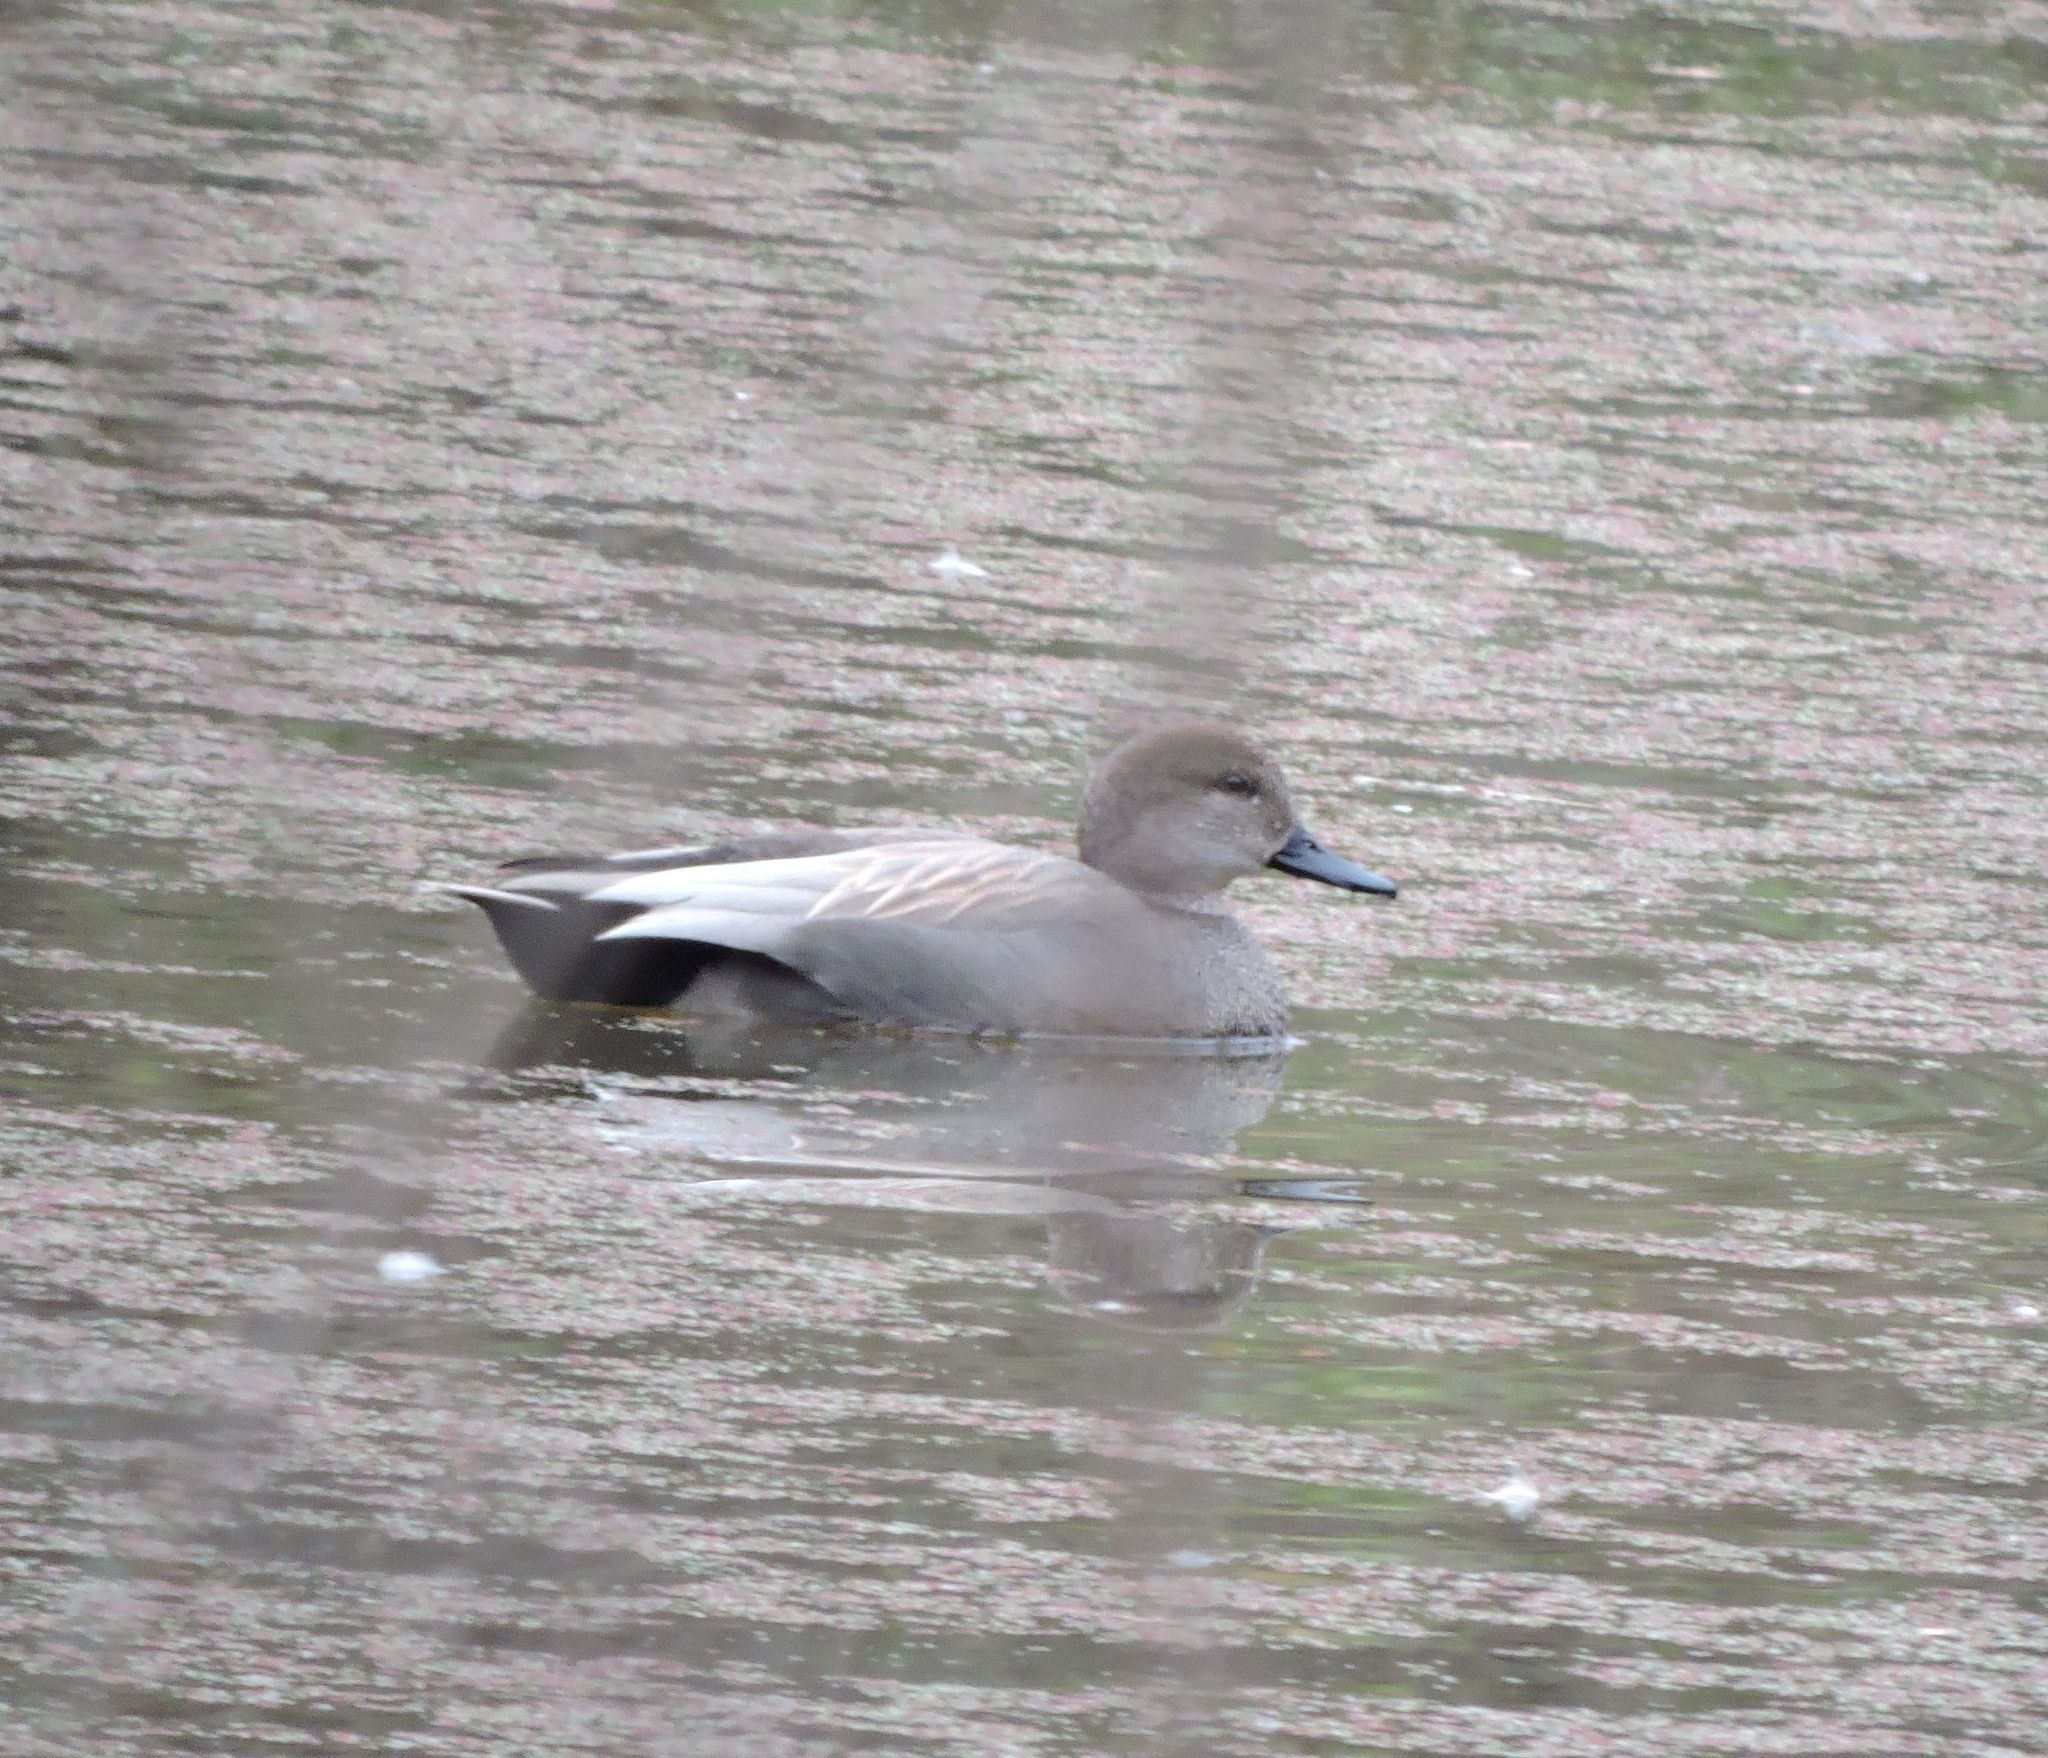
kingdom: Animalia
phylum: Chordata
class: Aves
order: Anseriformes
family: Anatidae
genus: Mareca
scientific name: Mareca strepera
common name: Gadwall
